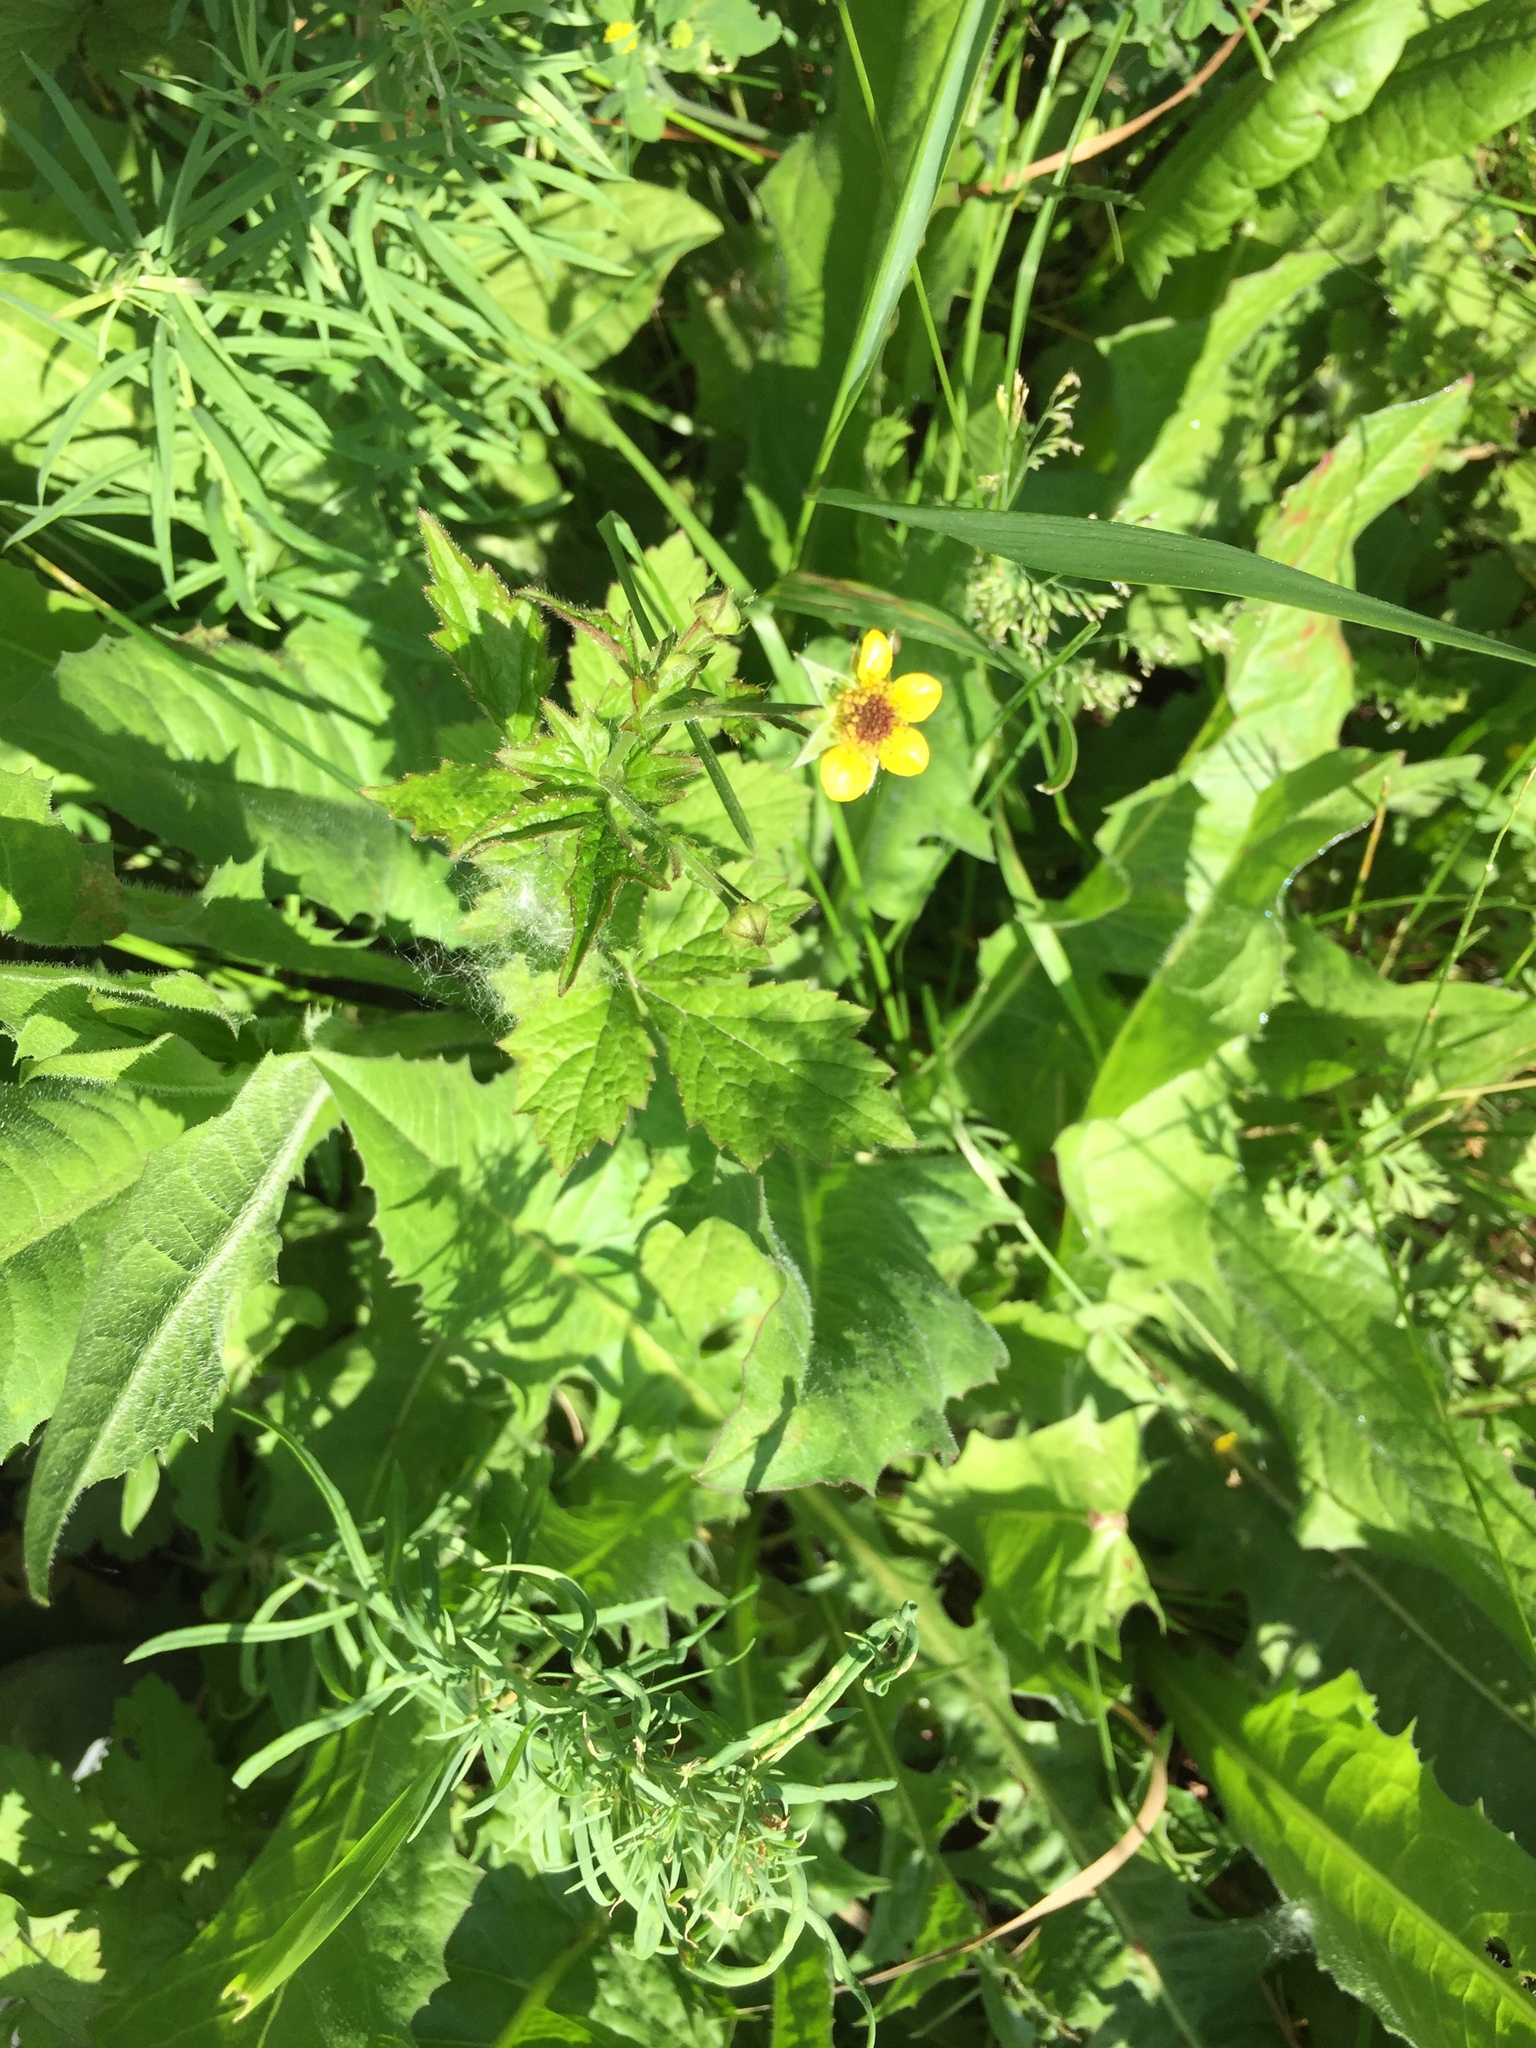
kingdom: Plantae
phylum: Tracheophyta
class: Magnoliopsida
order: Rosales
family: Rosaceae
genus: Geum
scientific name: Geum urbanum
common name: Wood avens
